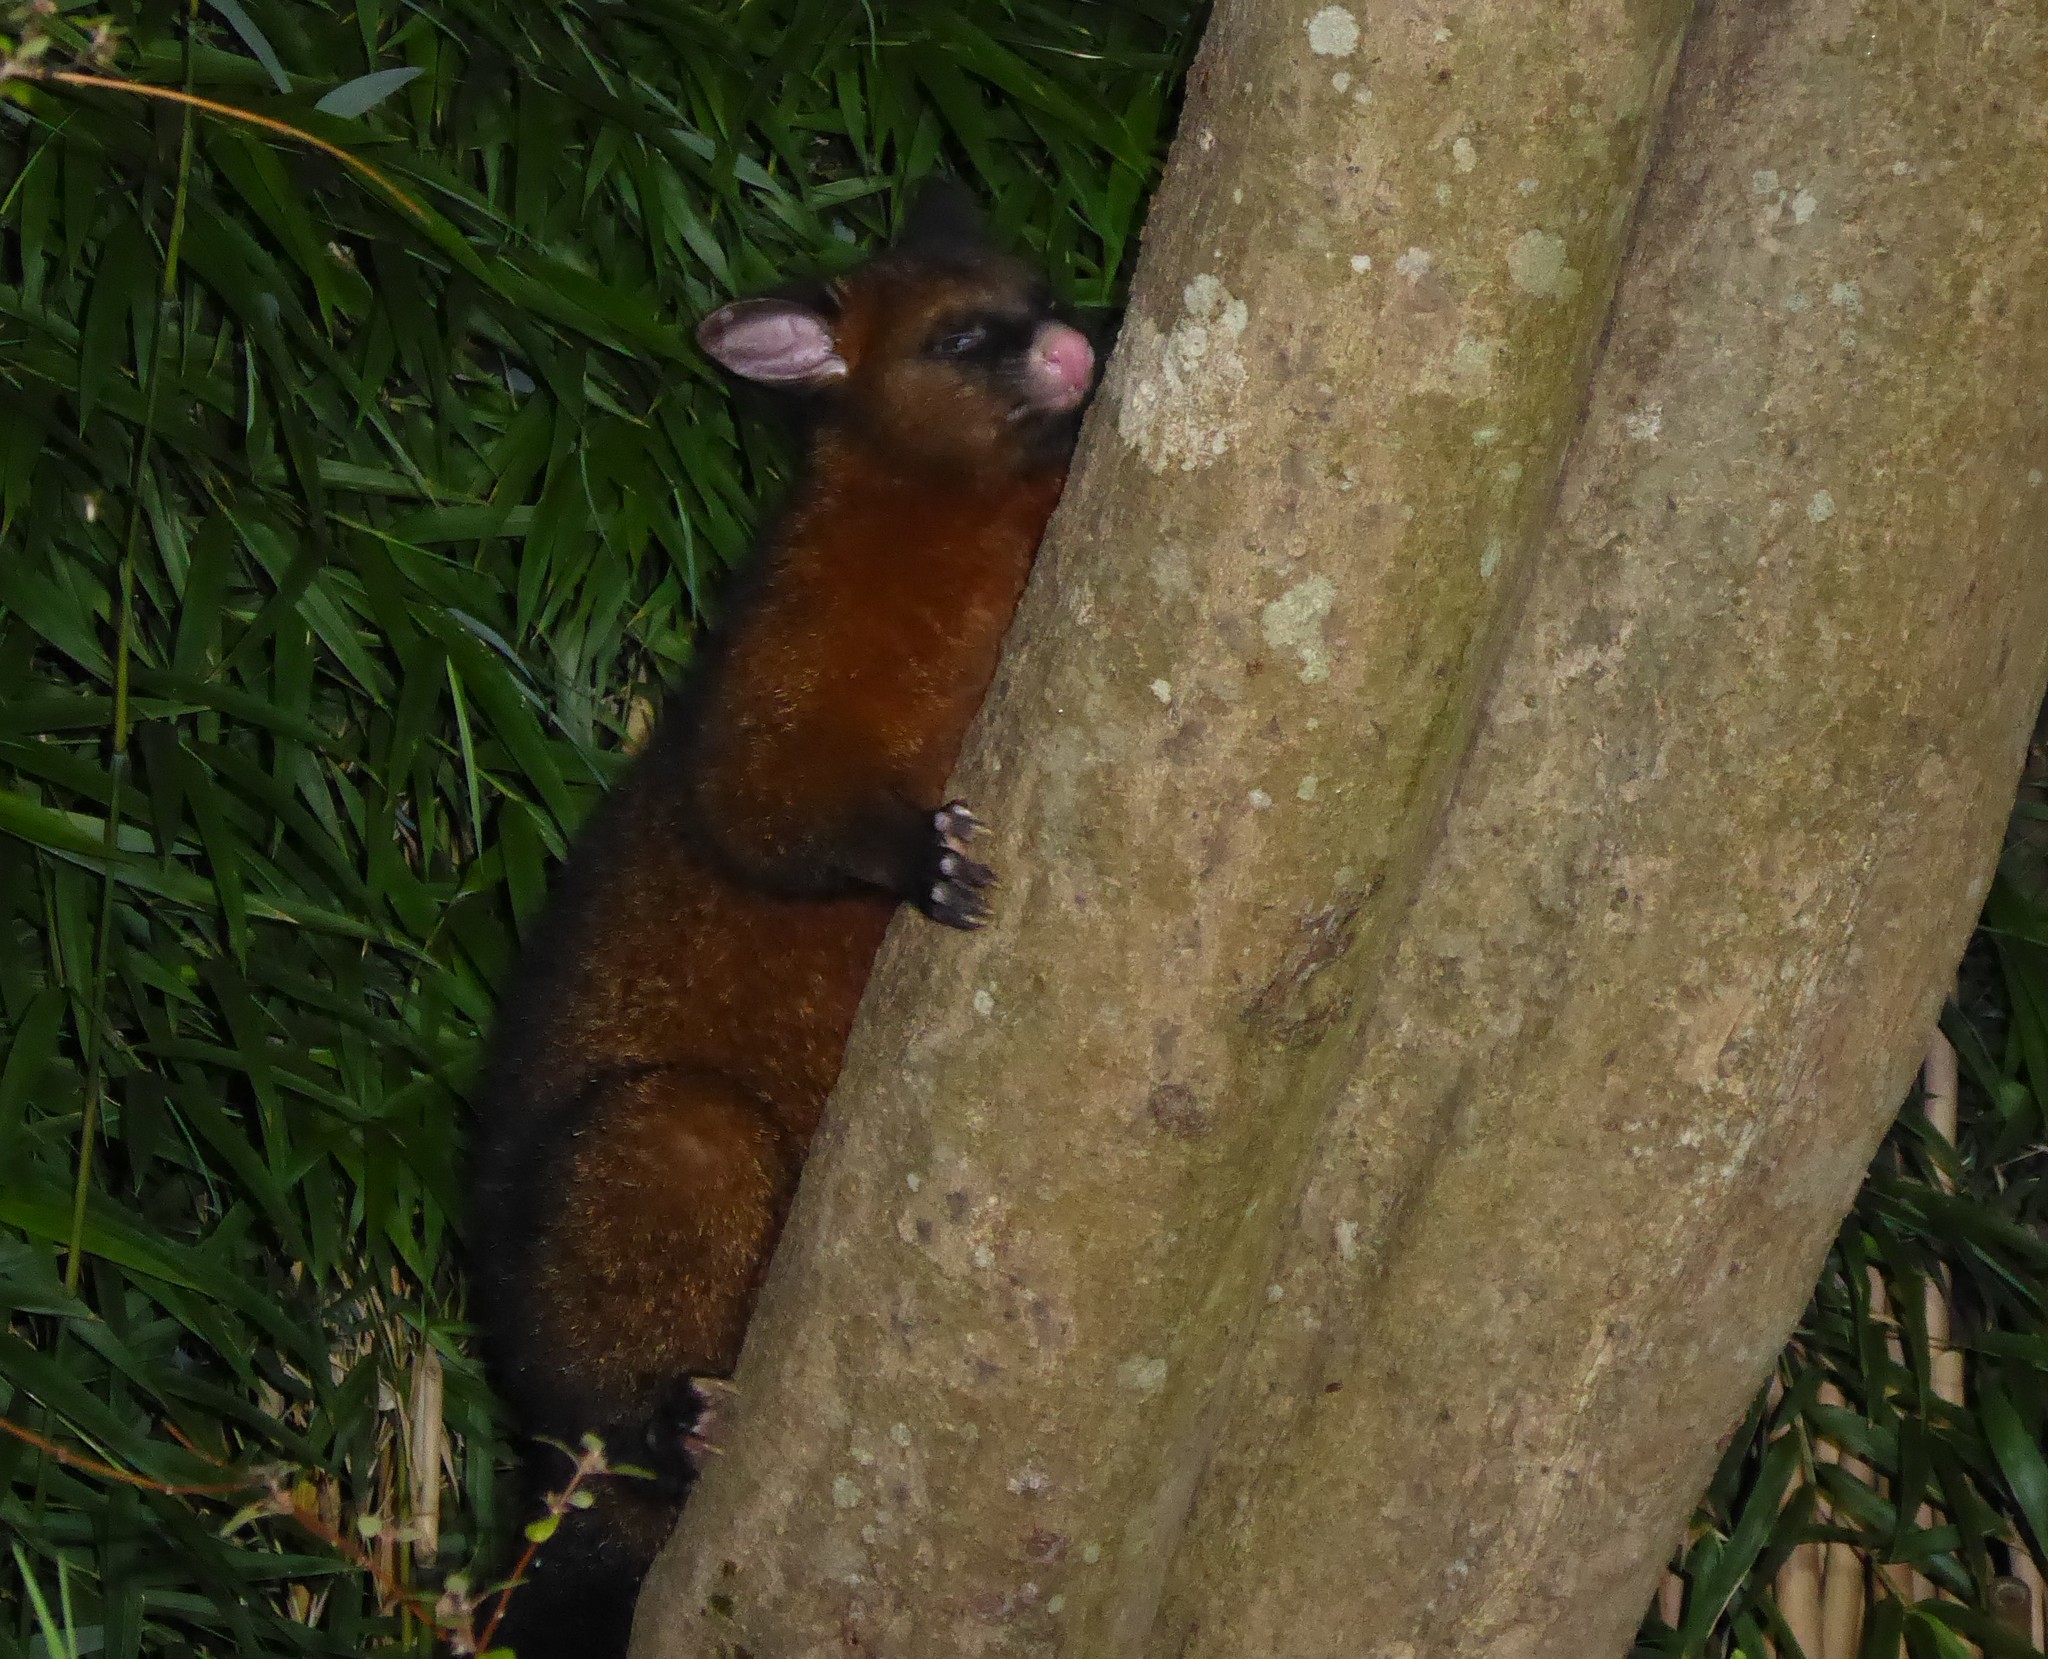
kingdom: Animalia
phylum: Chordata
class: Mammalia
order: Diprotodontia
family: Phalangeridae
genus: Trichosurus
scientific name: Trichosurus vulpecula
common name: Common brushtail
